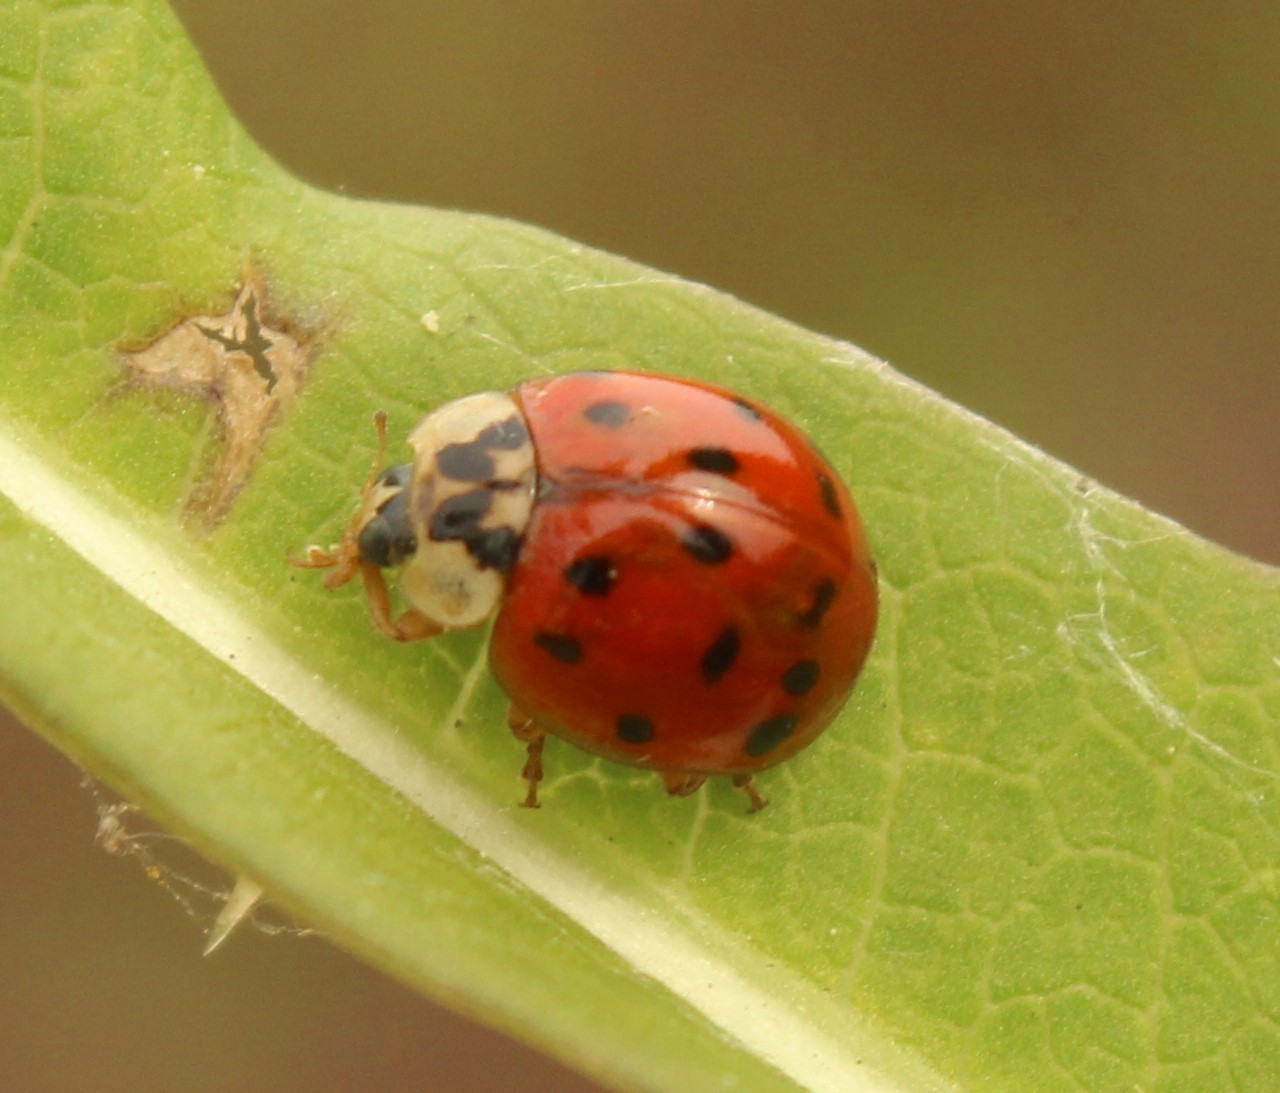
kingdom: Animalia
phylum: Arthropoda
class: Insecta
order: Coleoptera
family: Coccinellidae
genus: Harmonia
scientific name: Harmonia axyridis
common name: Harlequin ladybird
